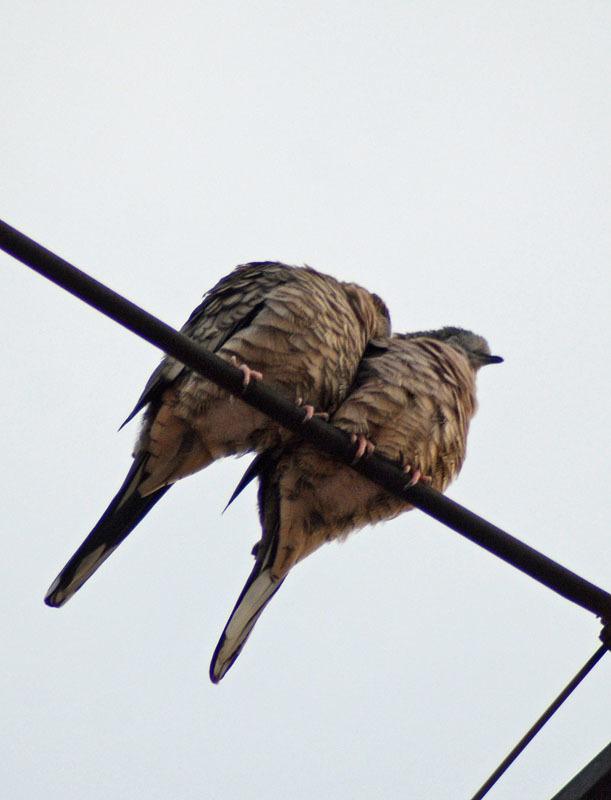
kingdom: Animalia
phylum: Chordata
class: Aves
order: Columbiformes
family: Columbidae
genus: Columbina
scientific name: Columbina inca
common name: Inca dove
